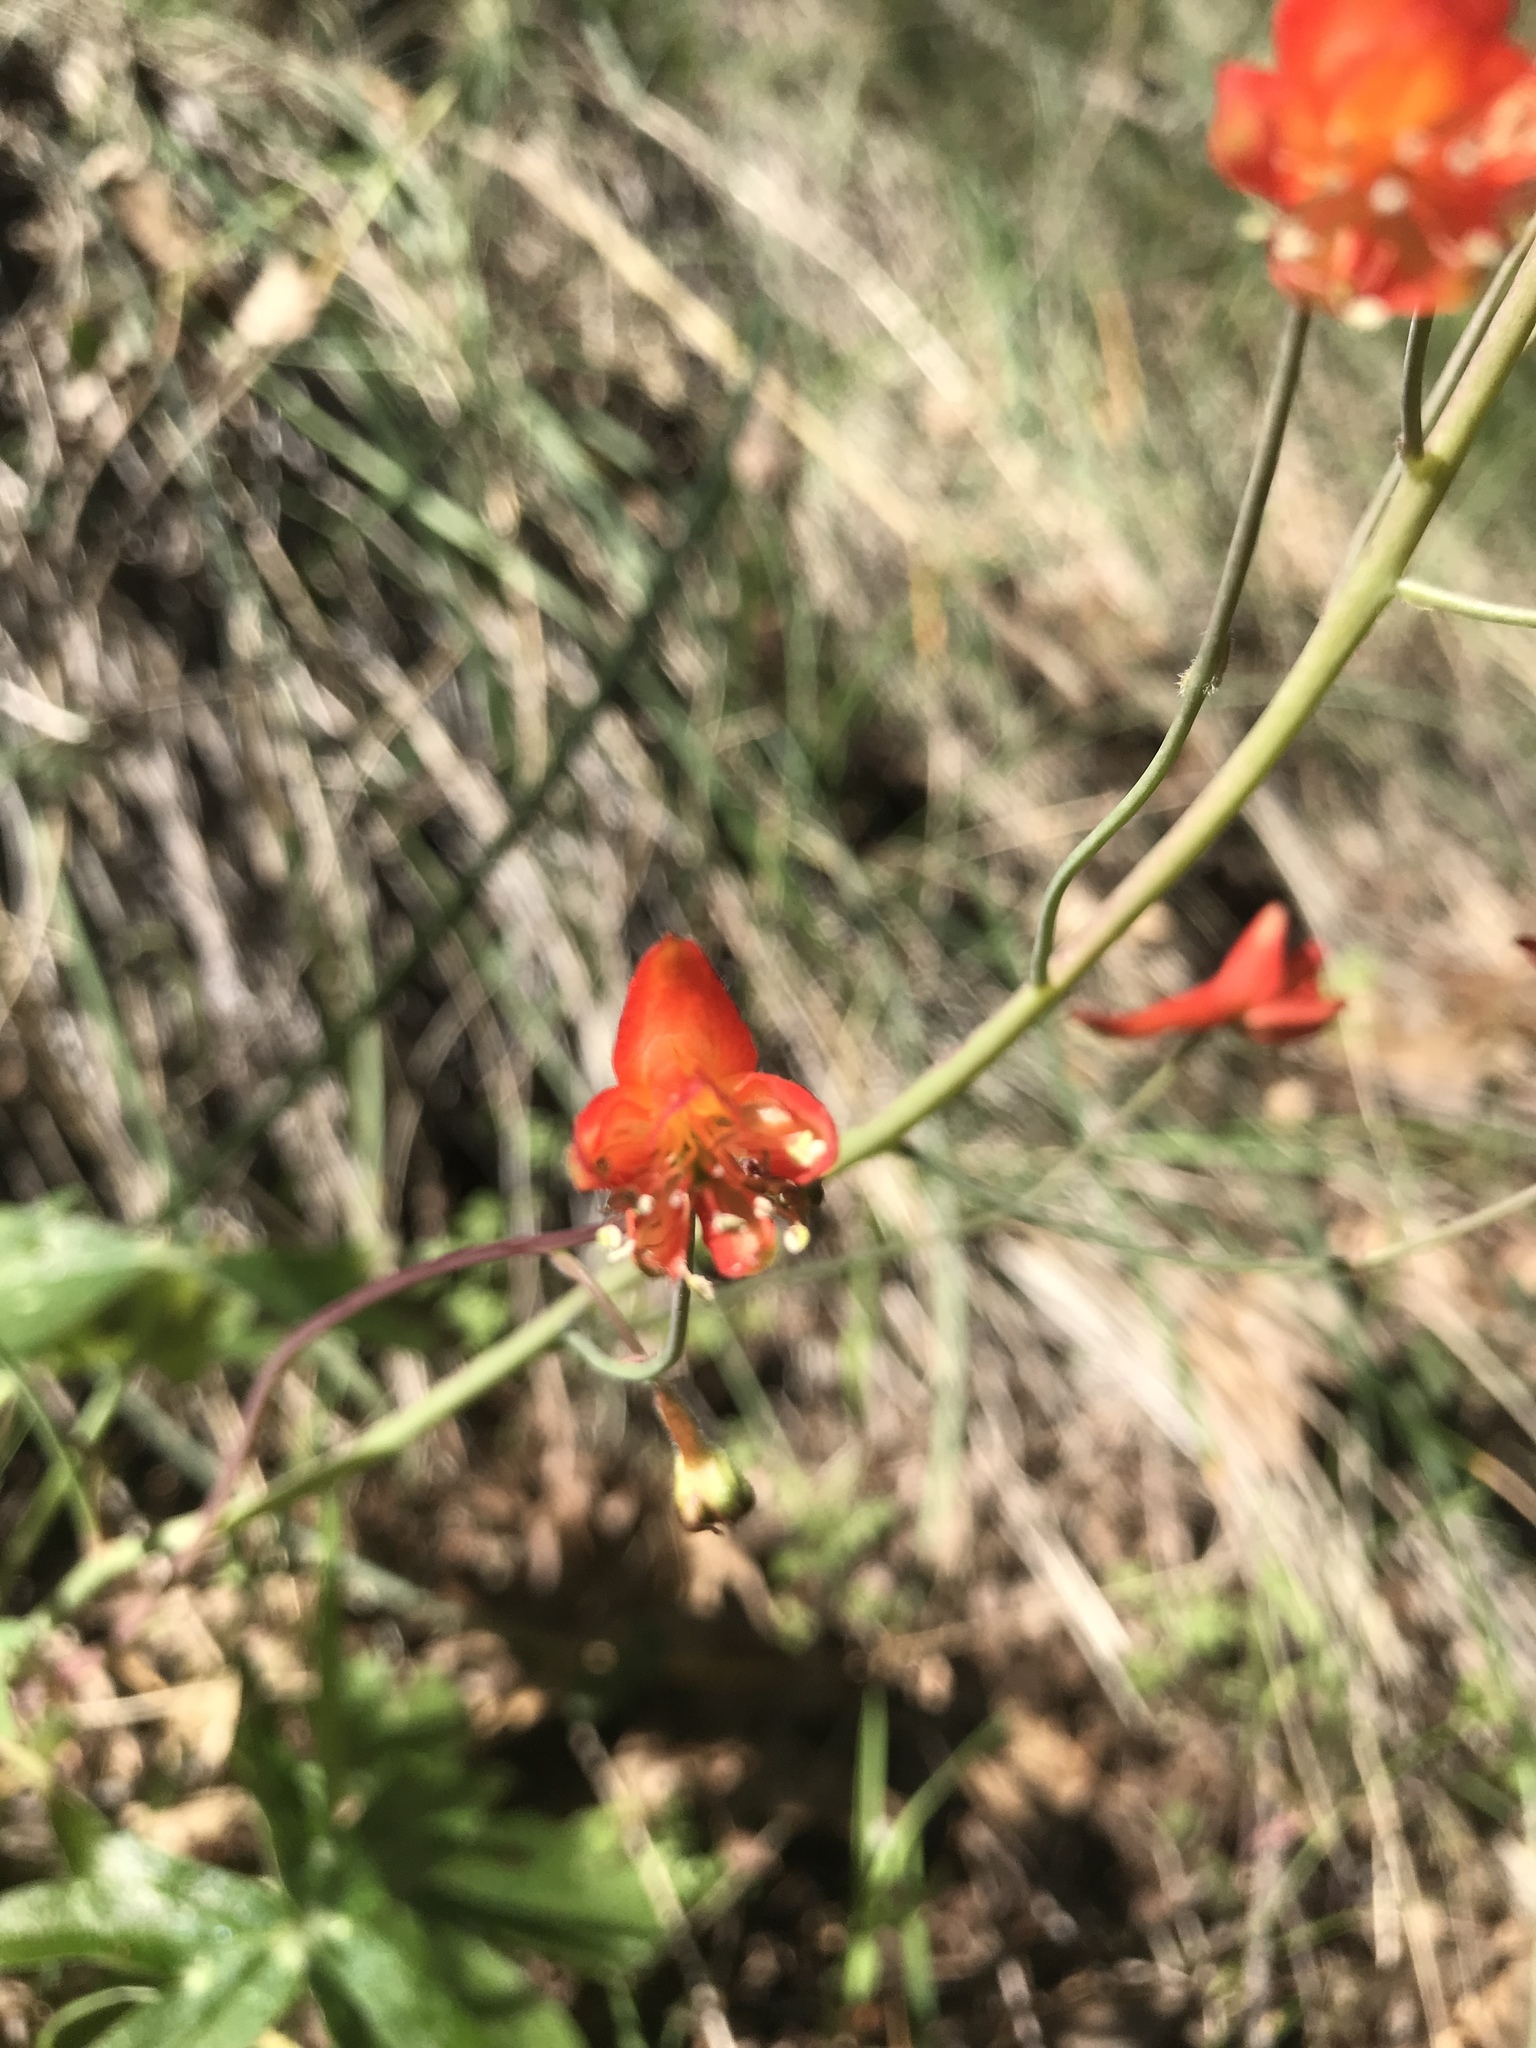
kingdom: Plantae
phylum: Tracheophyta
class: Magnoliopsida
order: Ranunculales
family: Ranunculaceae
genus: Delphinium
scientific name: Delphinium nudicaule
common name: Red larkspur
